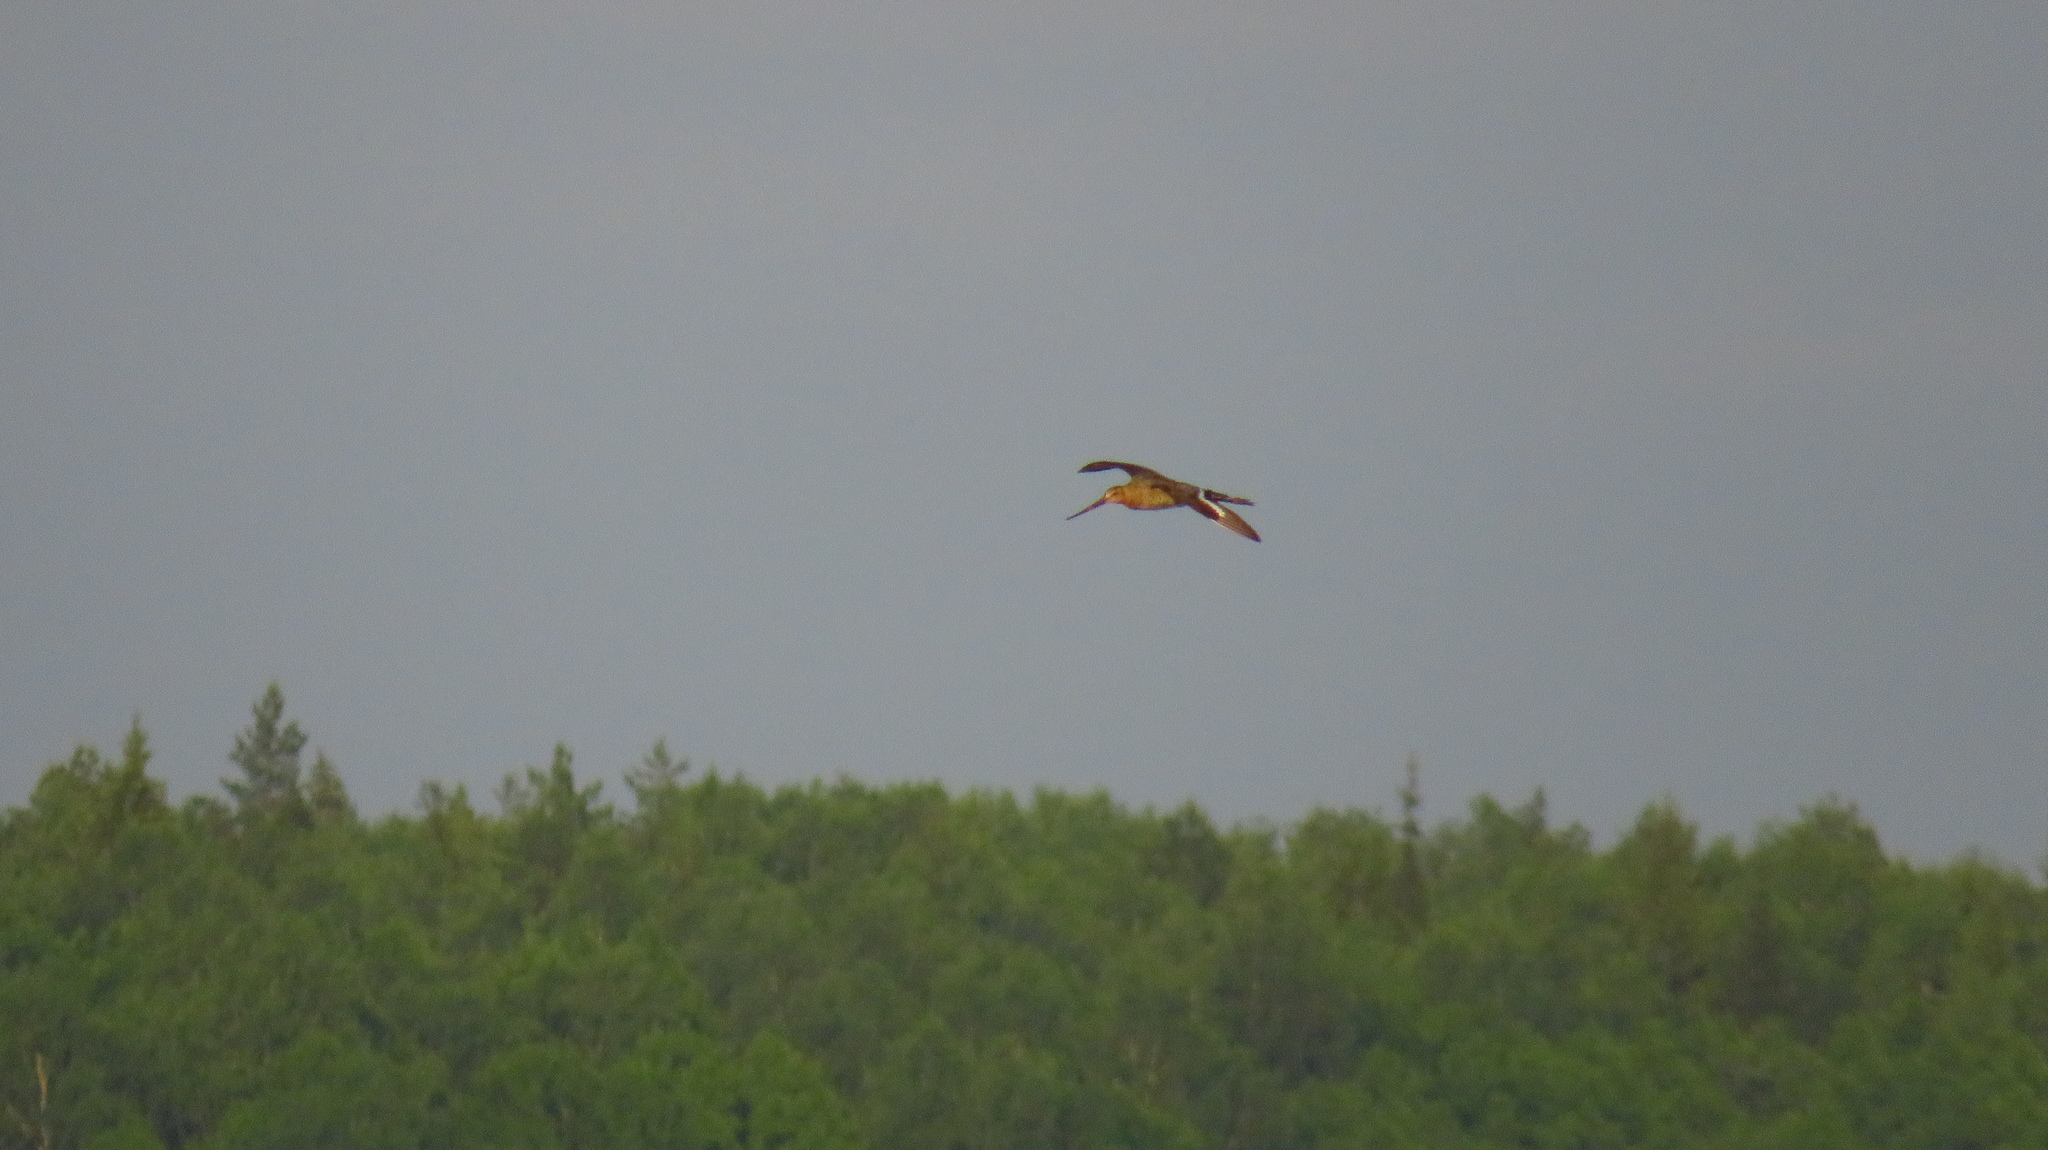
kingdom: Animalia
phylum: Chordata
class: Aves
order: Charadriiformes
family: Scolopacidae
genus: Limosa
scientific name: Limosa limosa
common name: Black-tailed godwit
